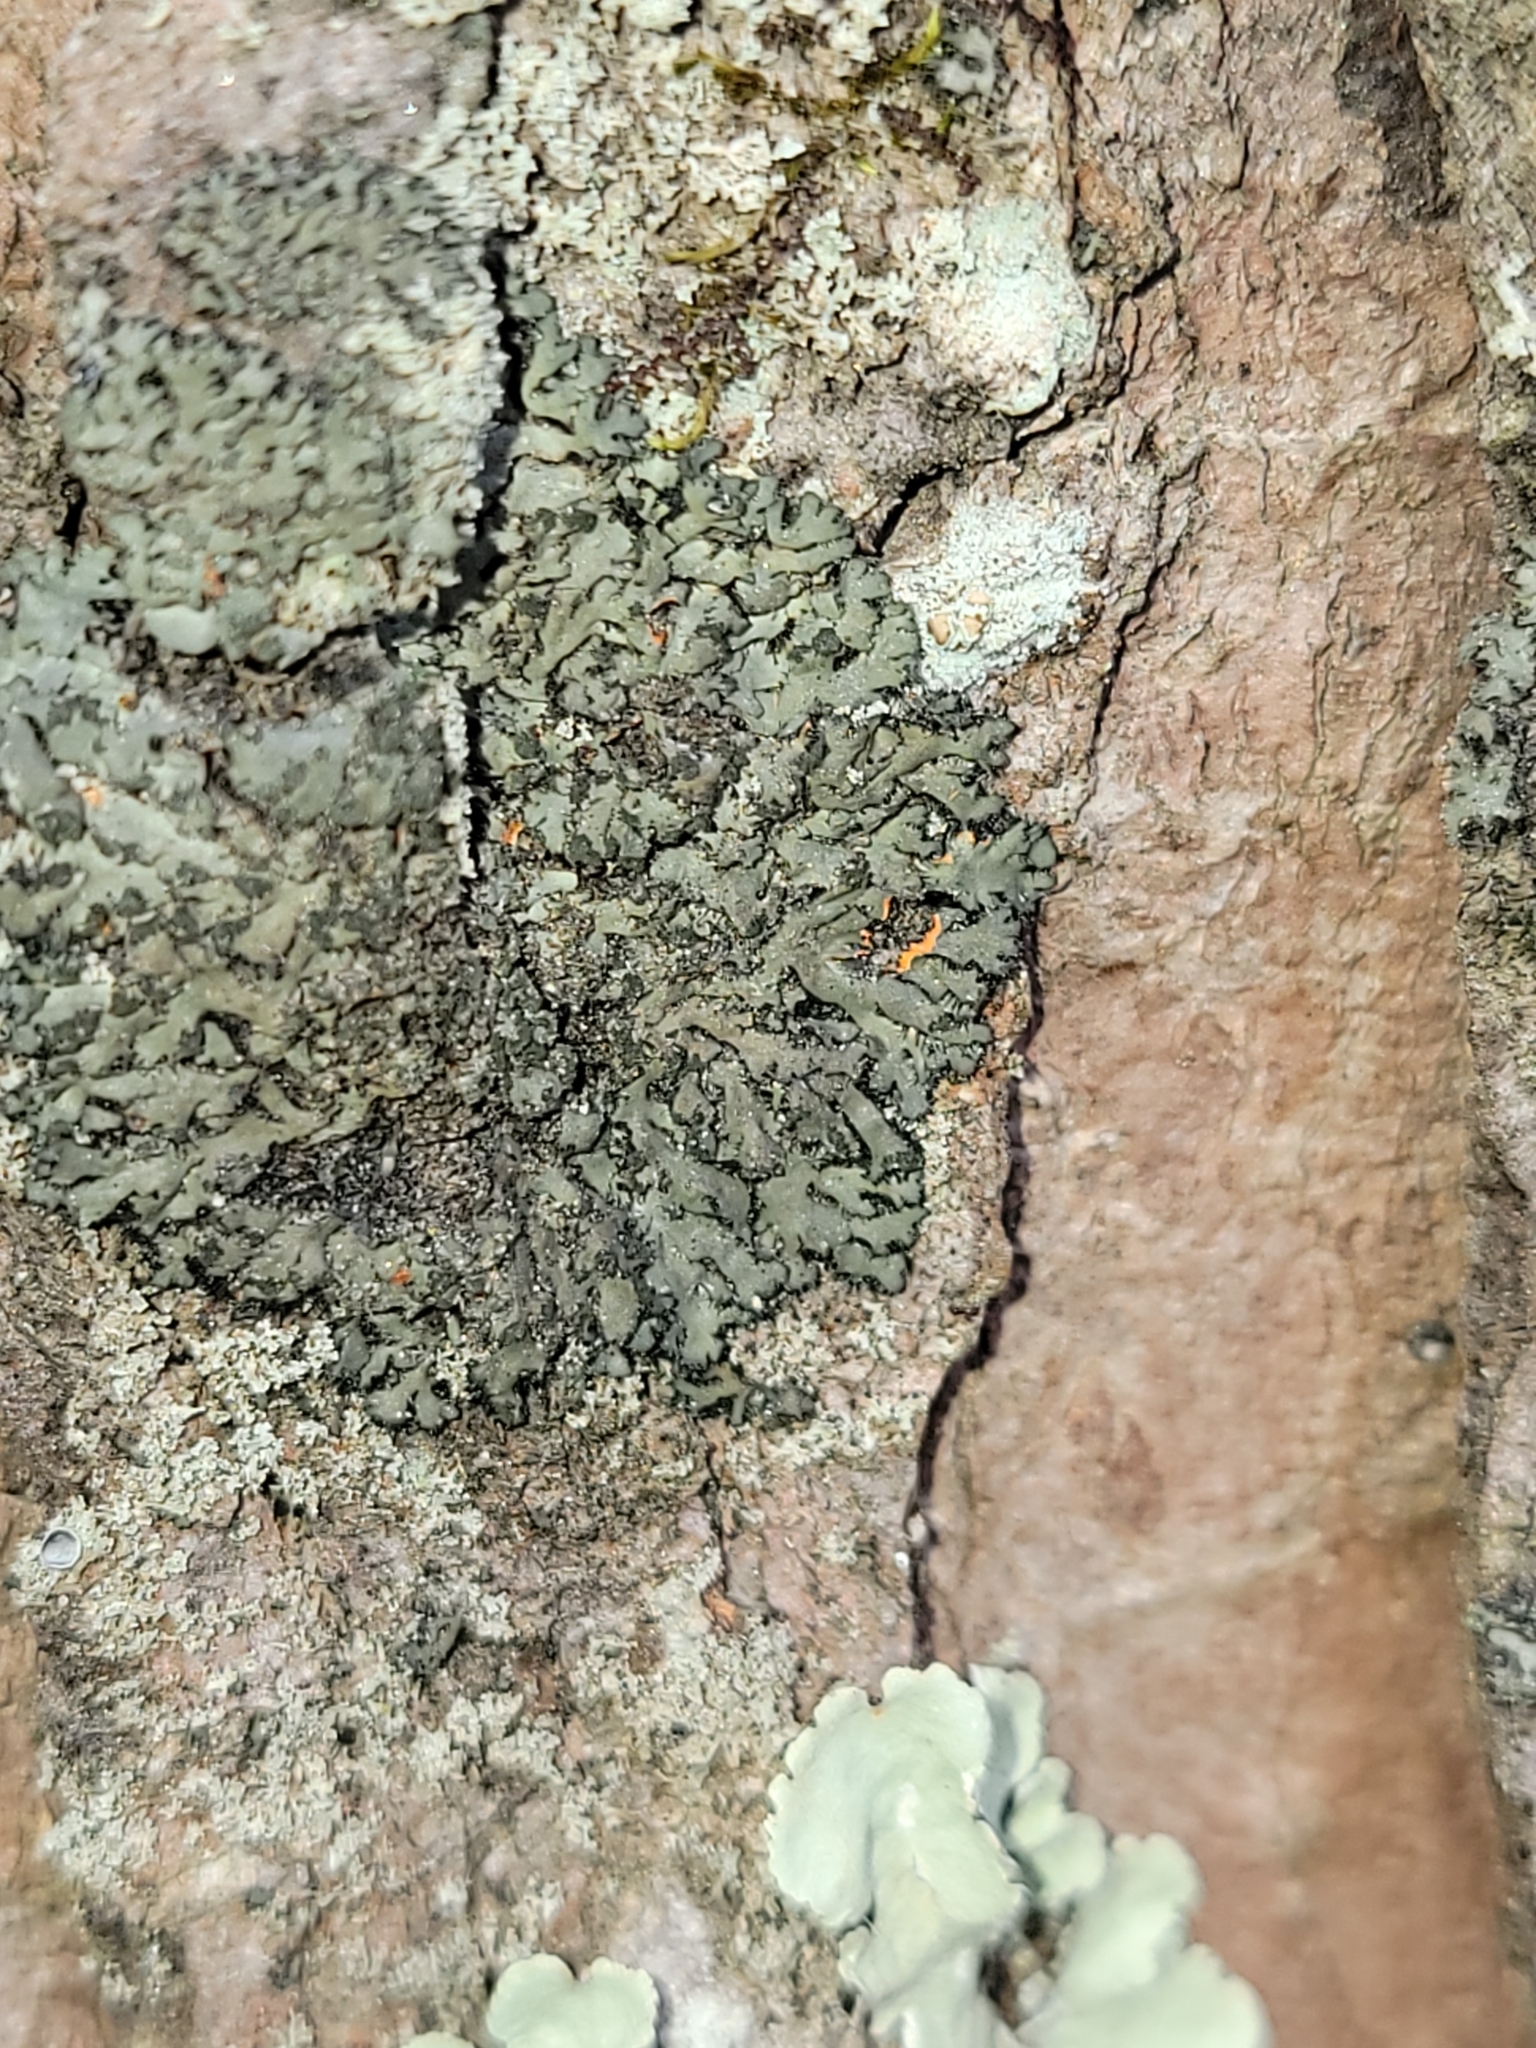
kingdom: Fungi
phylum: Ascomycota
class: Lecanoromycetes
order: Caliciales
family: Physciaceae
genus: Phaeophyscia
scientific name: Phaeophyscia rubropulchra
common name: Orange-cored shadow lichen
